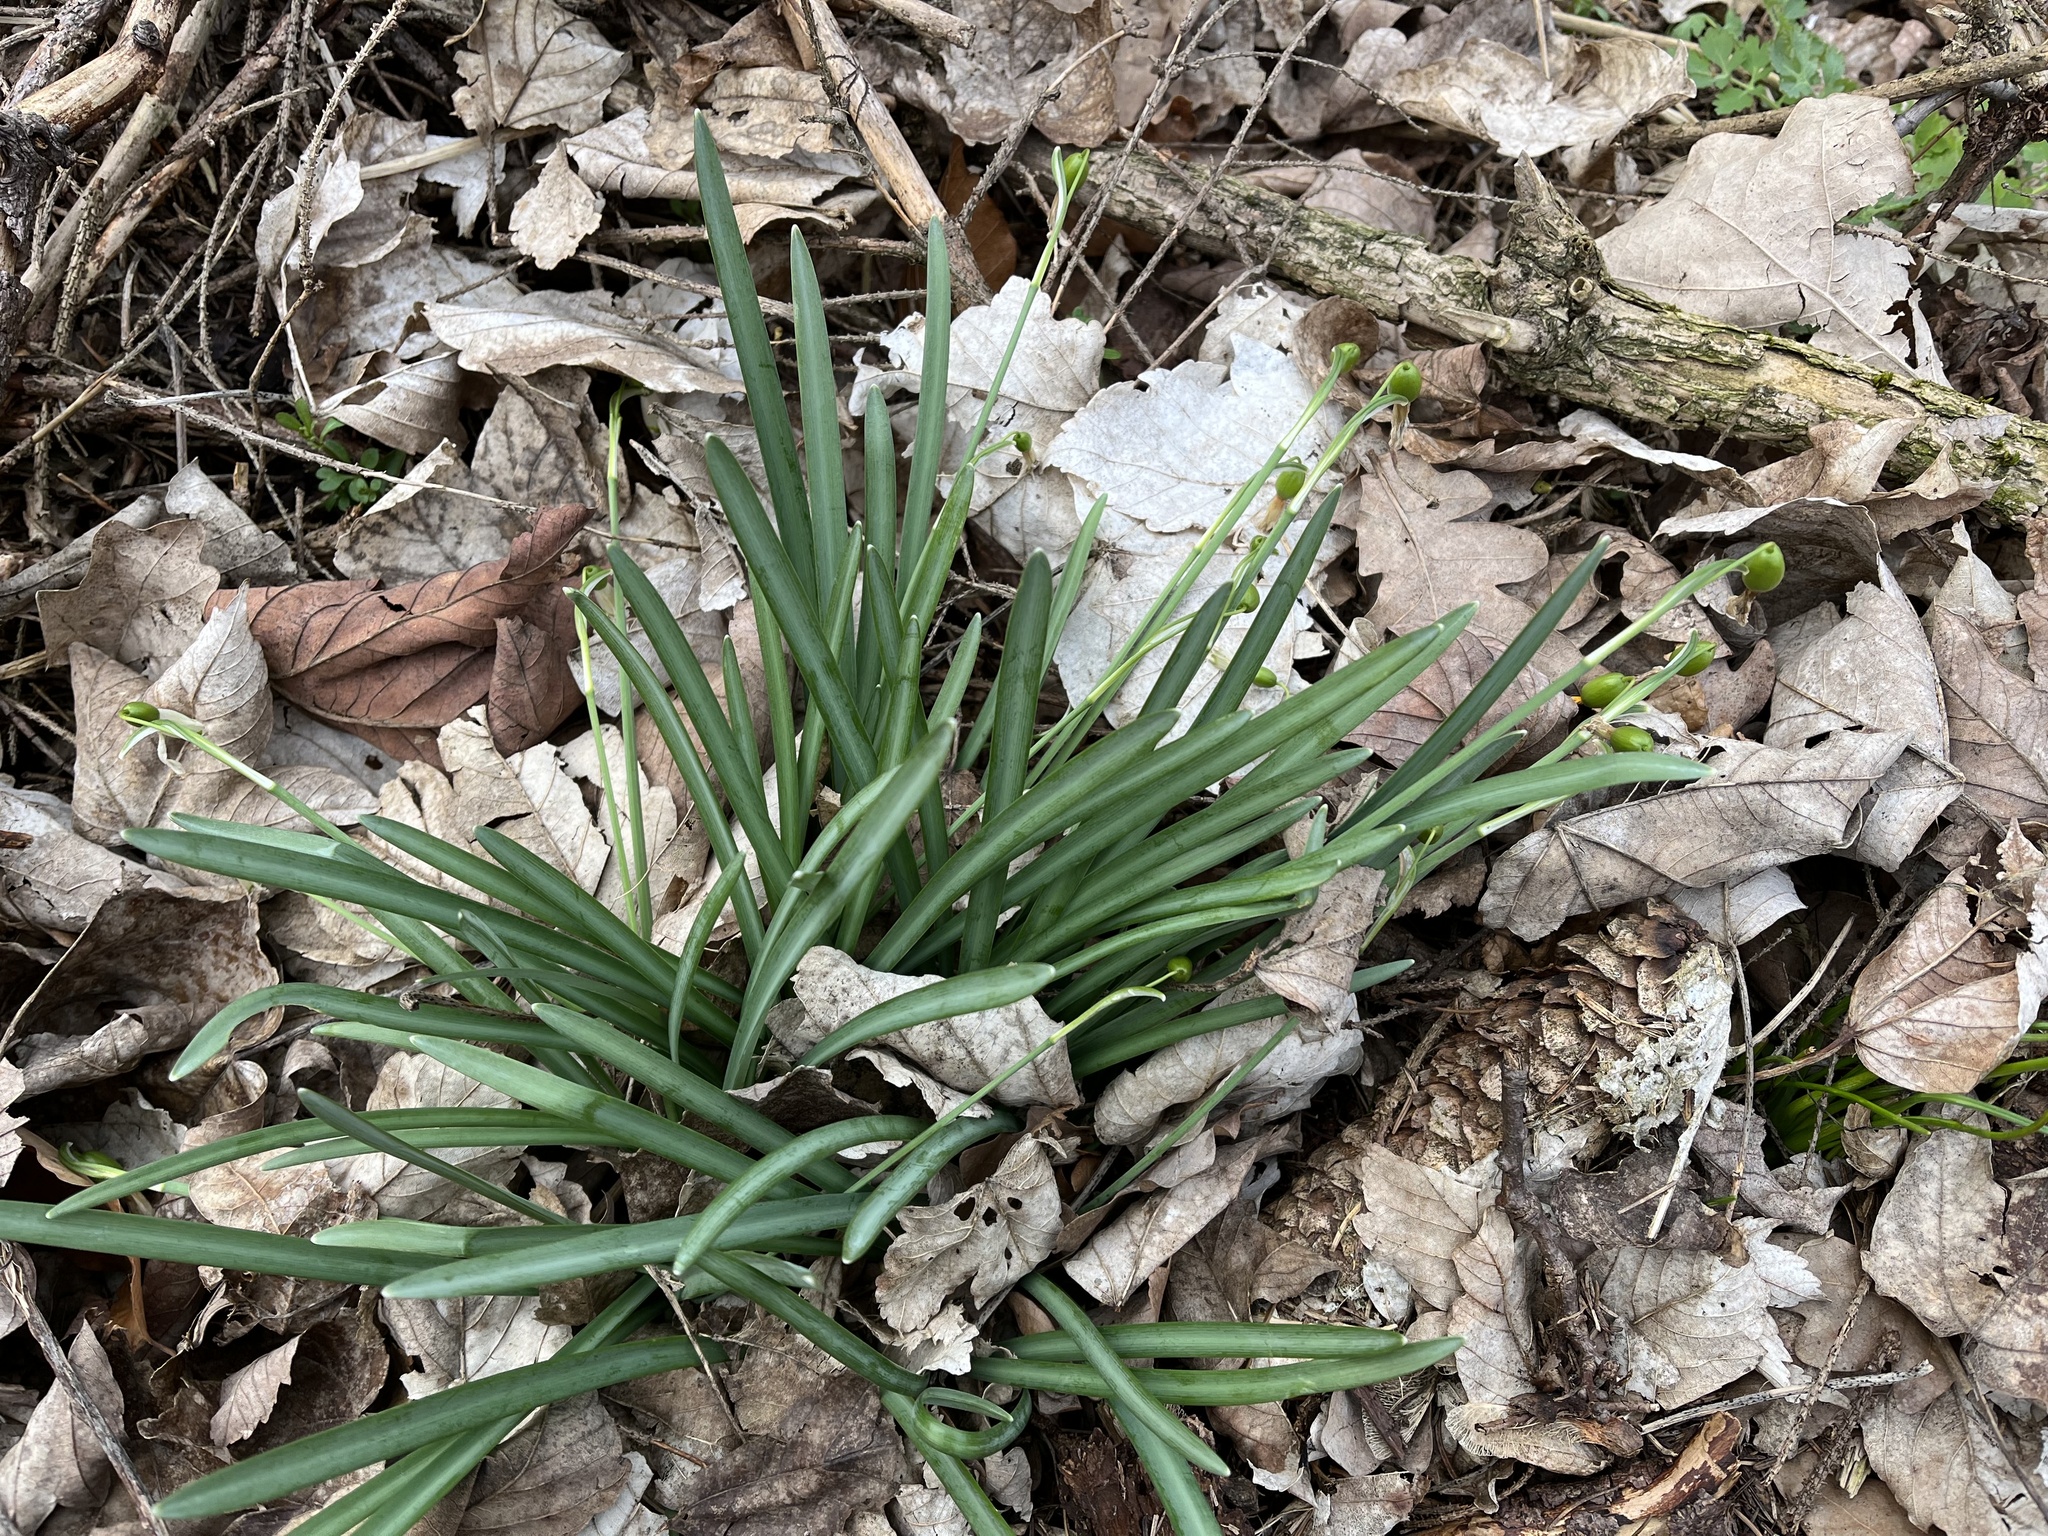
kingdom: Plantae
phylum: Tracheophyta
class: Liliopsida
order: Asparagales
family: Amaryllidaceae
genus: Galanthus
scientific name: Galanthus nivalis
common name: Snowdrop
